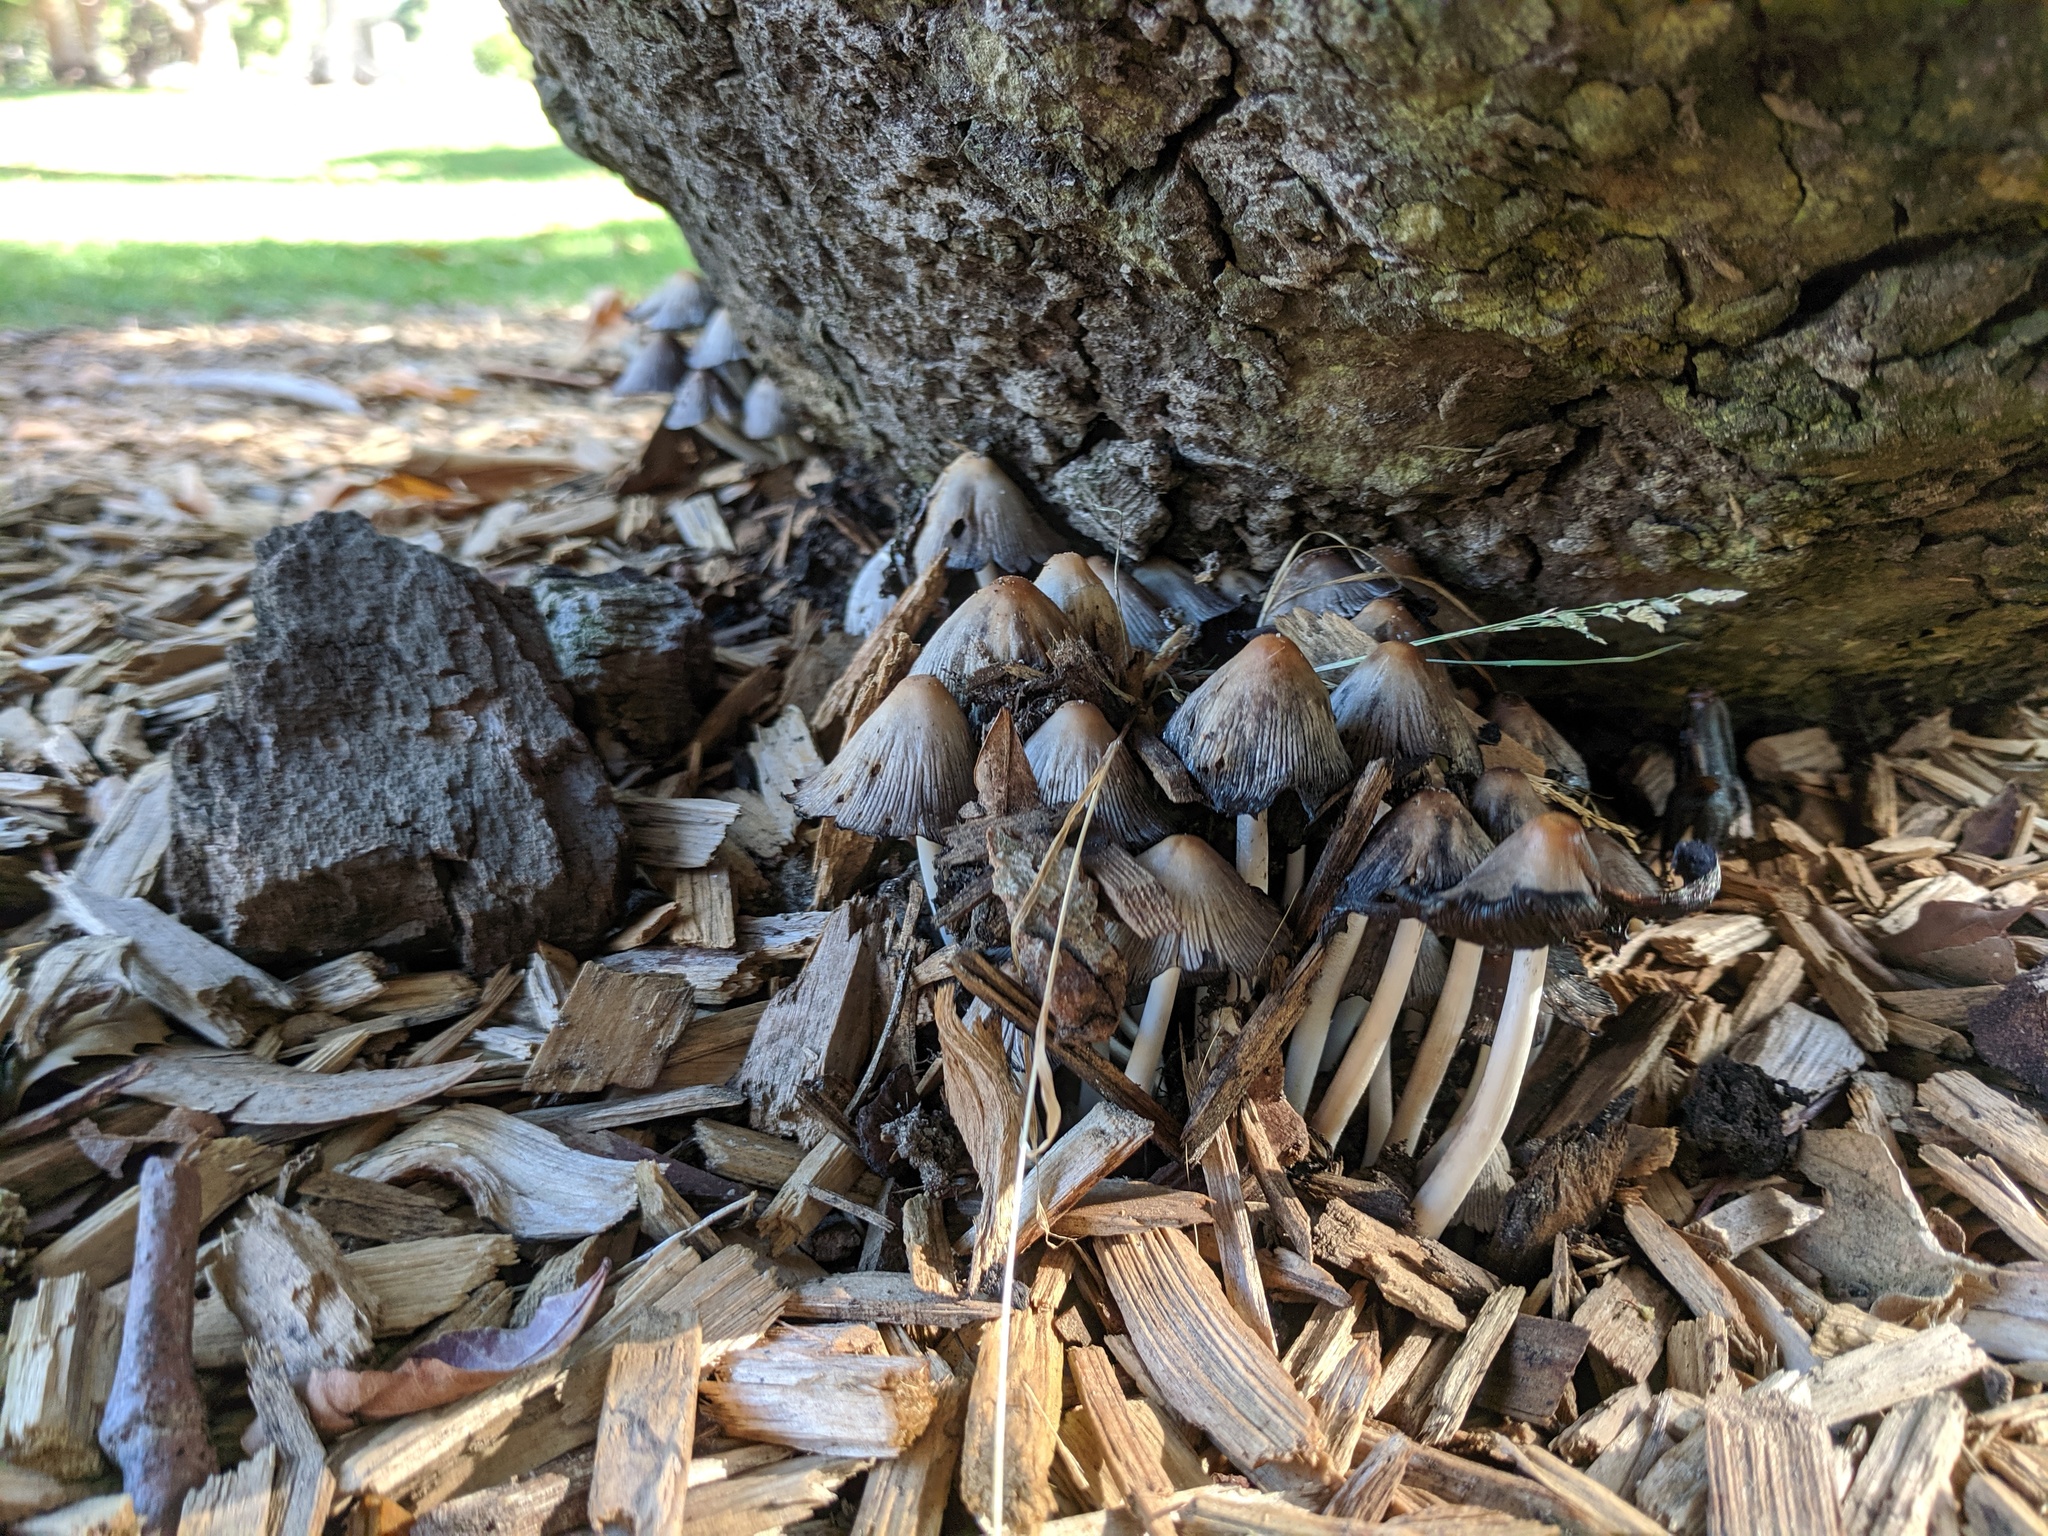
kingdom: Fungi
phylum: Basidiomycota
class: Agaricomycetes
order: Agaricales
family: Psathyrellaceae
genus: Coprinellus
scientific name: Coprinellus micaceus
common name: Glistening ink-cap
